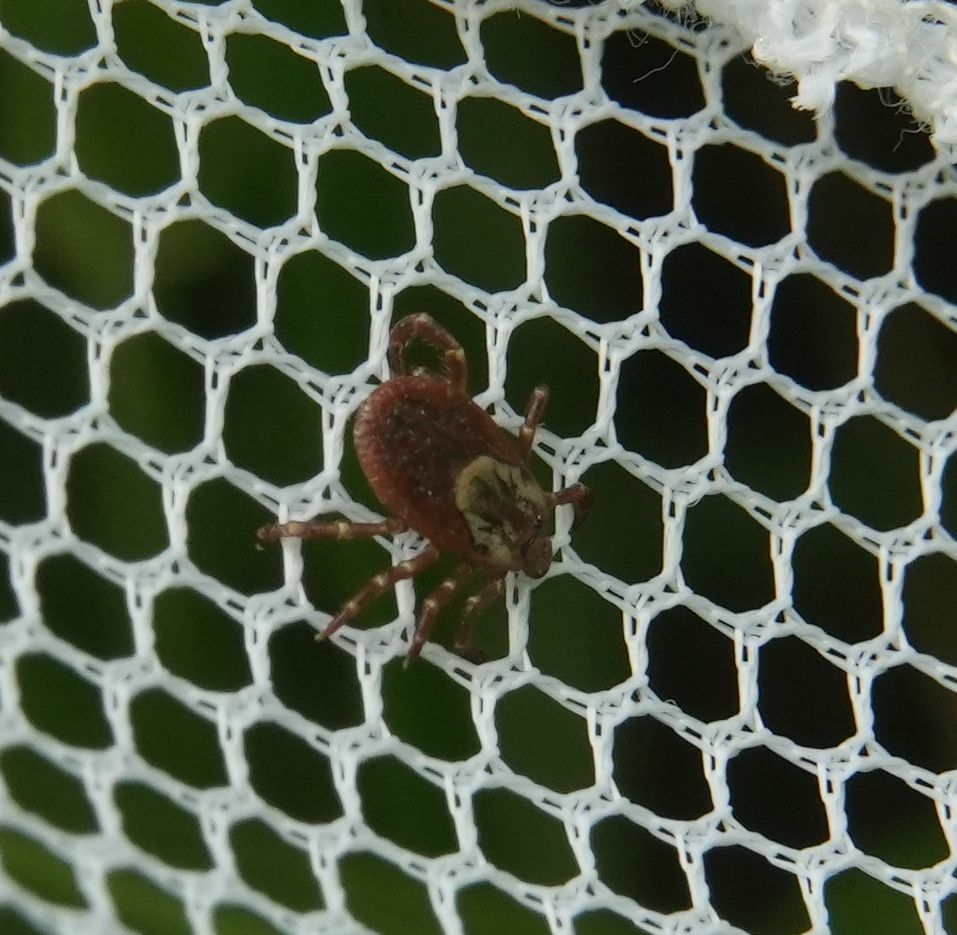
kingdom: Animalia
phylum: Arthropoda
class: Arachnida
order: Ixodida
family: Ixodidae
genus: Dermacentor
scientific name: Dermacentor variabilis
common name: American dog tick
